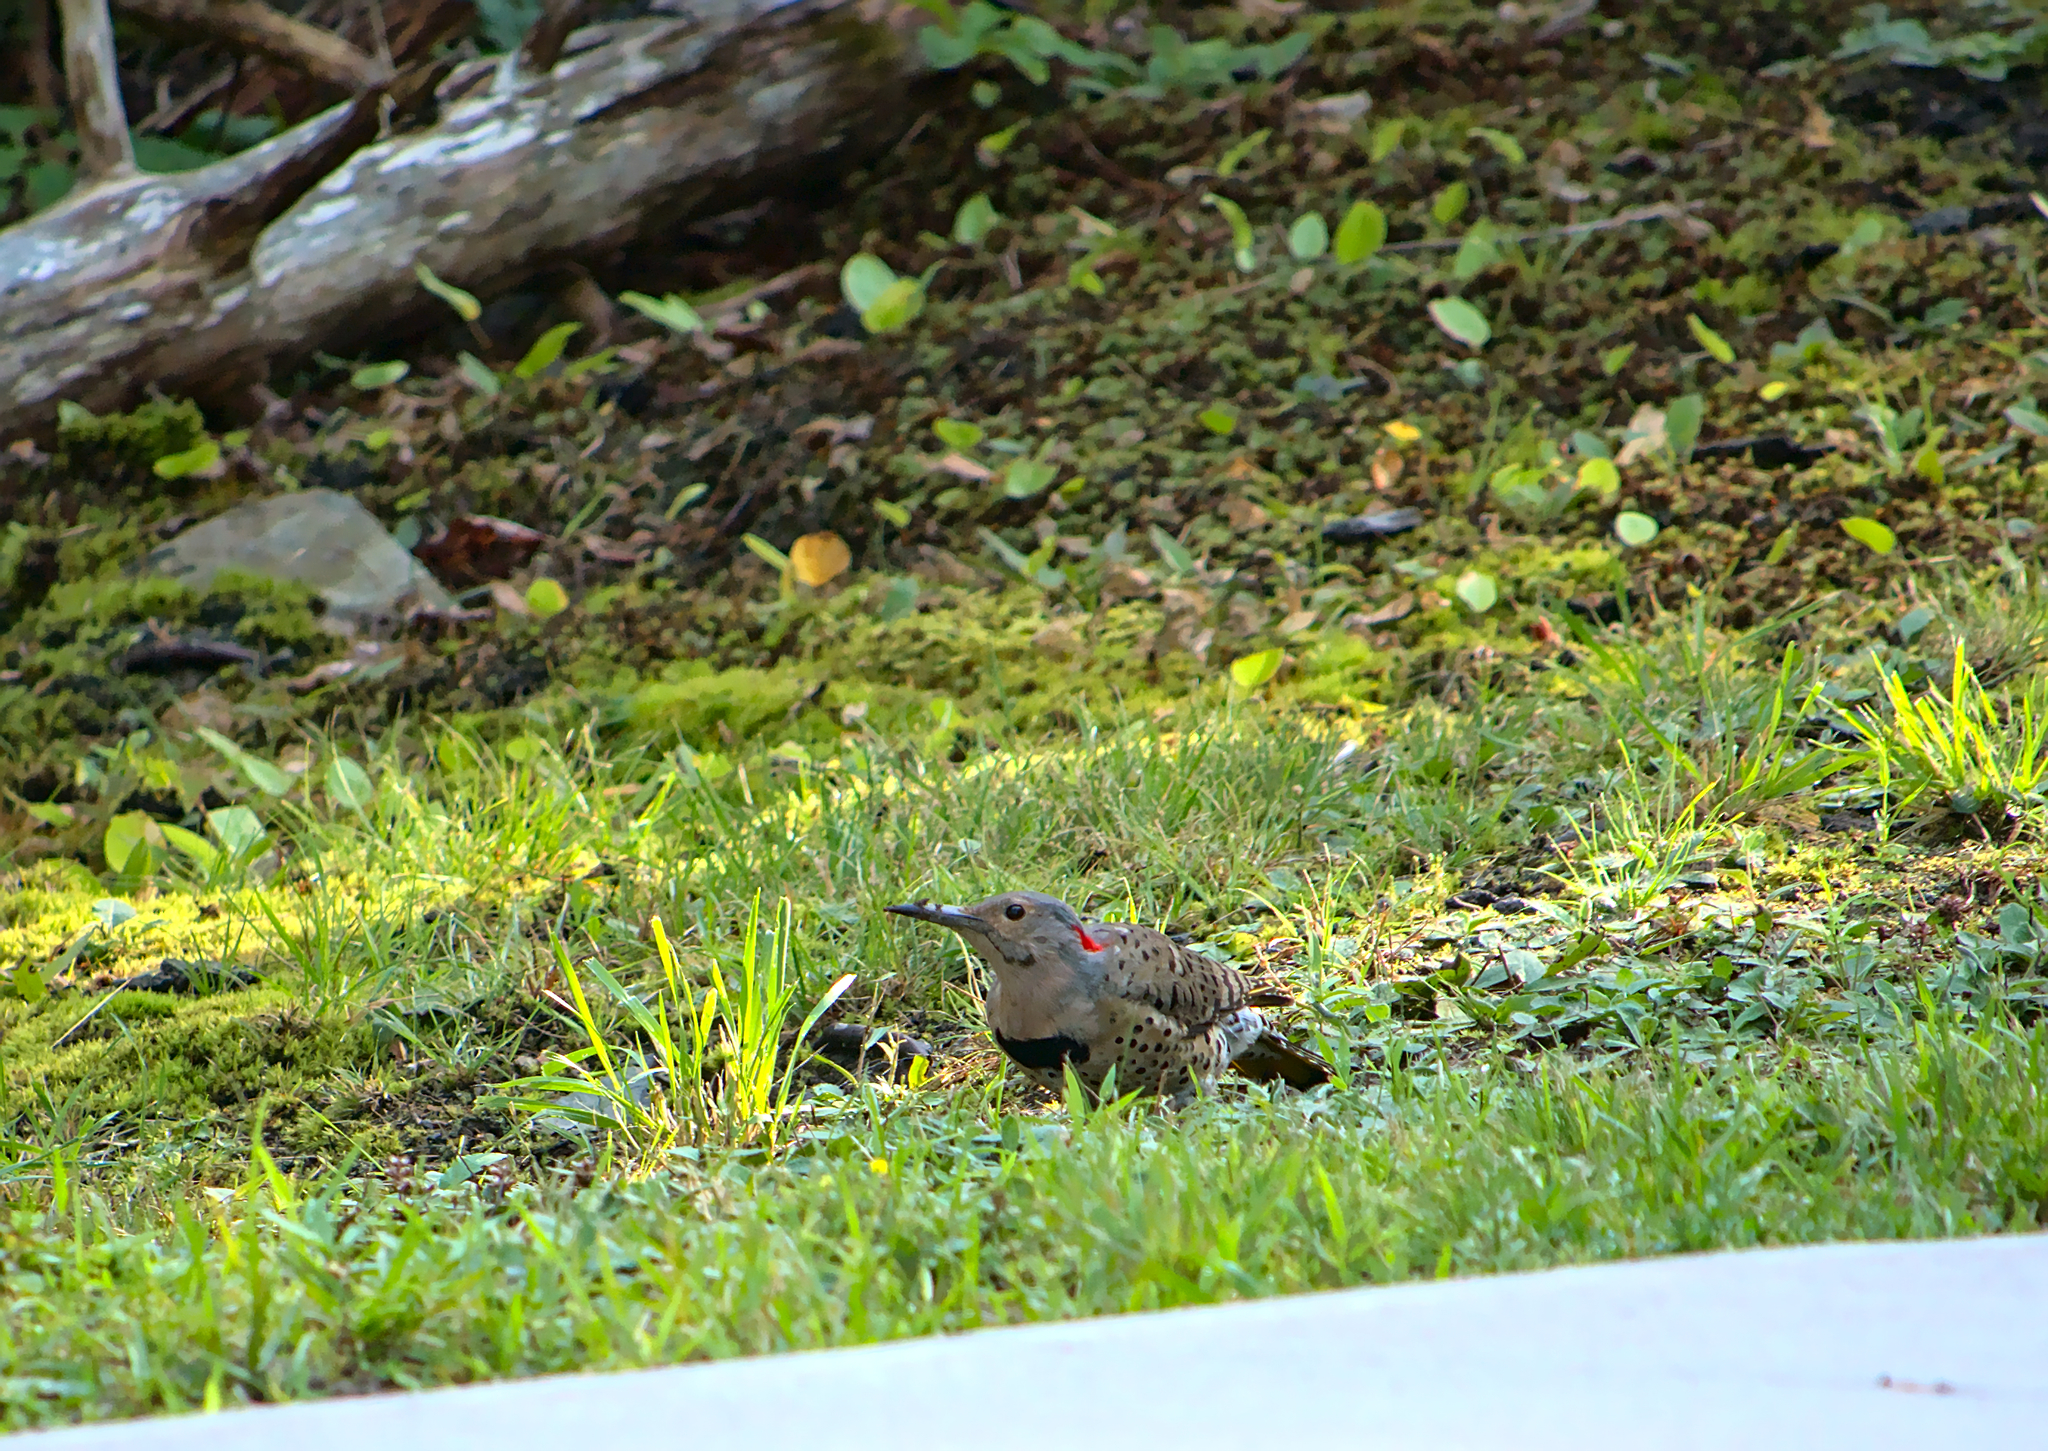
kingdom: Animalia
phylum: Chordata
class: Aves
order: Piciformes
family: Picidae
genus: Colaptes
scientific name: Colaptes auratus
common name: Northern flicker
